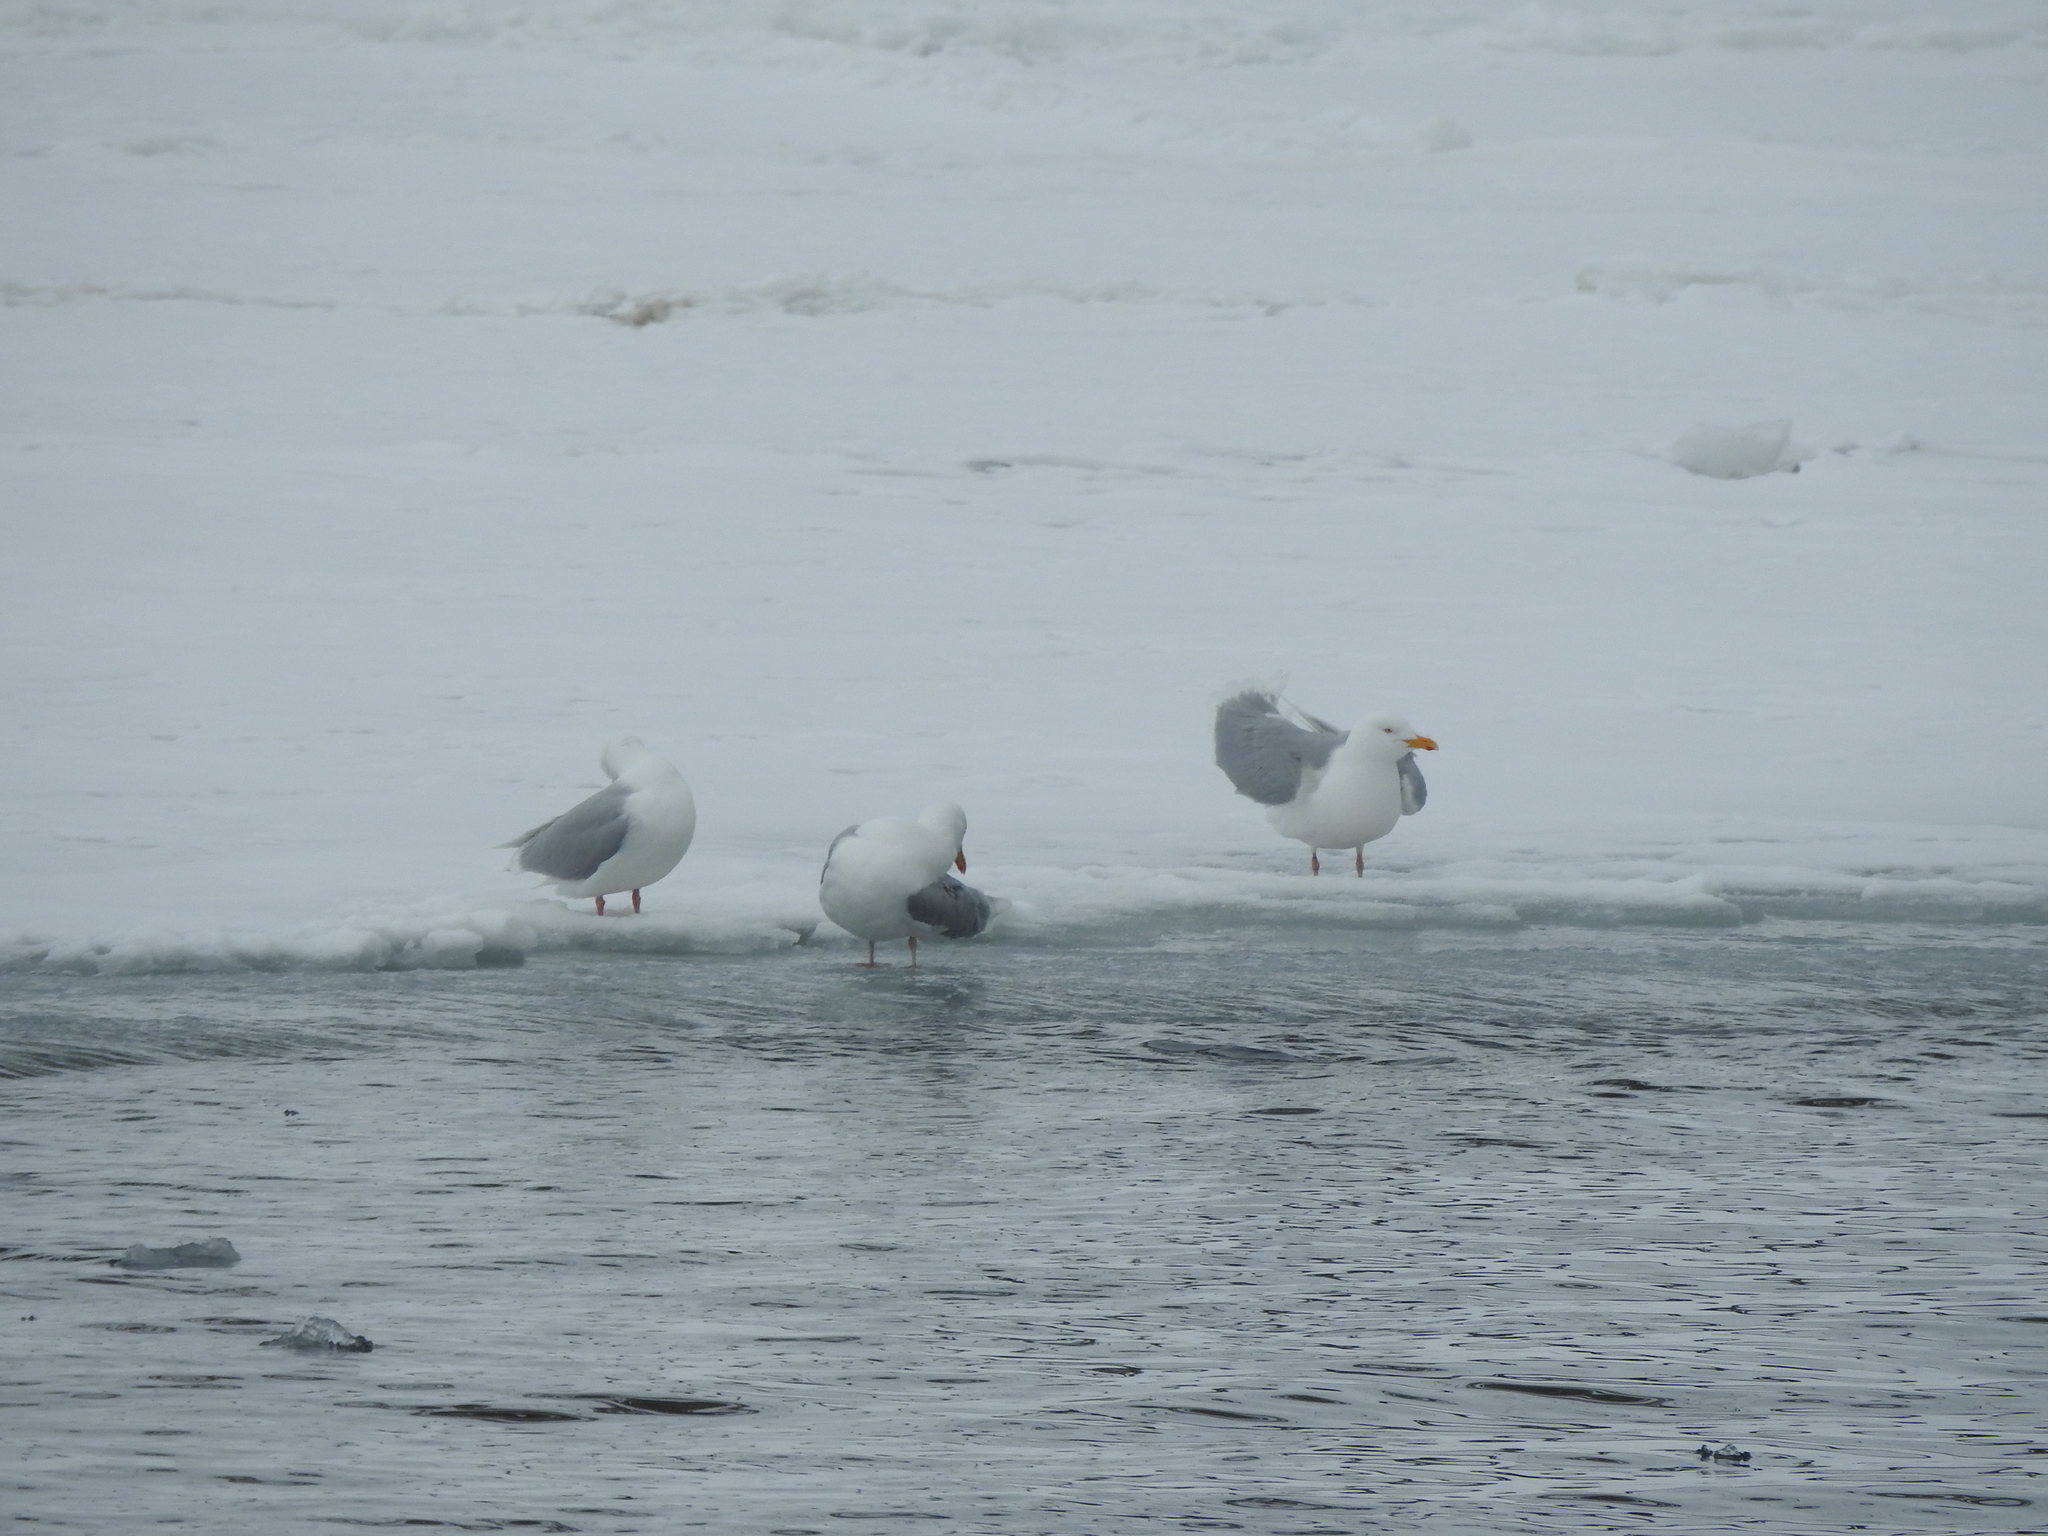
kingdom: Animalia
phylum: Chordata
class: Aves
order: Charadriiformes
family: Laridae
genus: Larus
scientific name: Larus hyperboreus
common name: Glaucous gull
